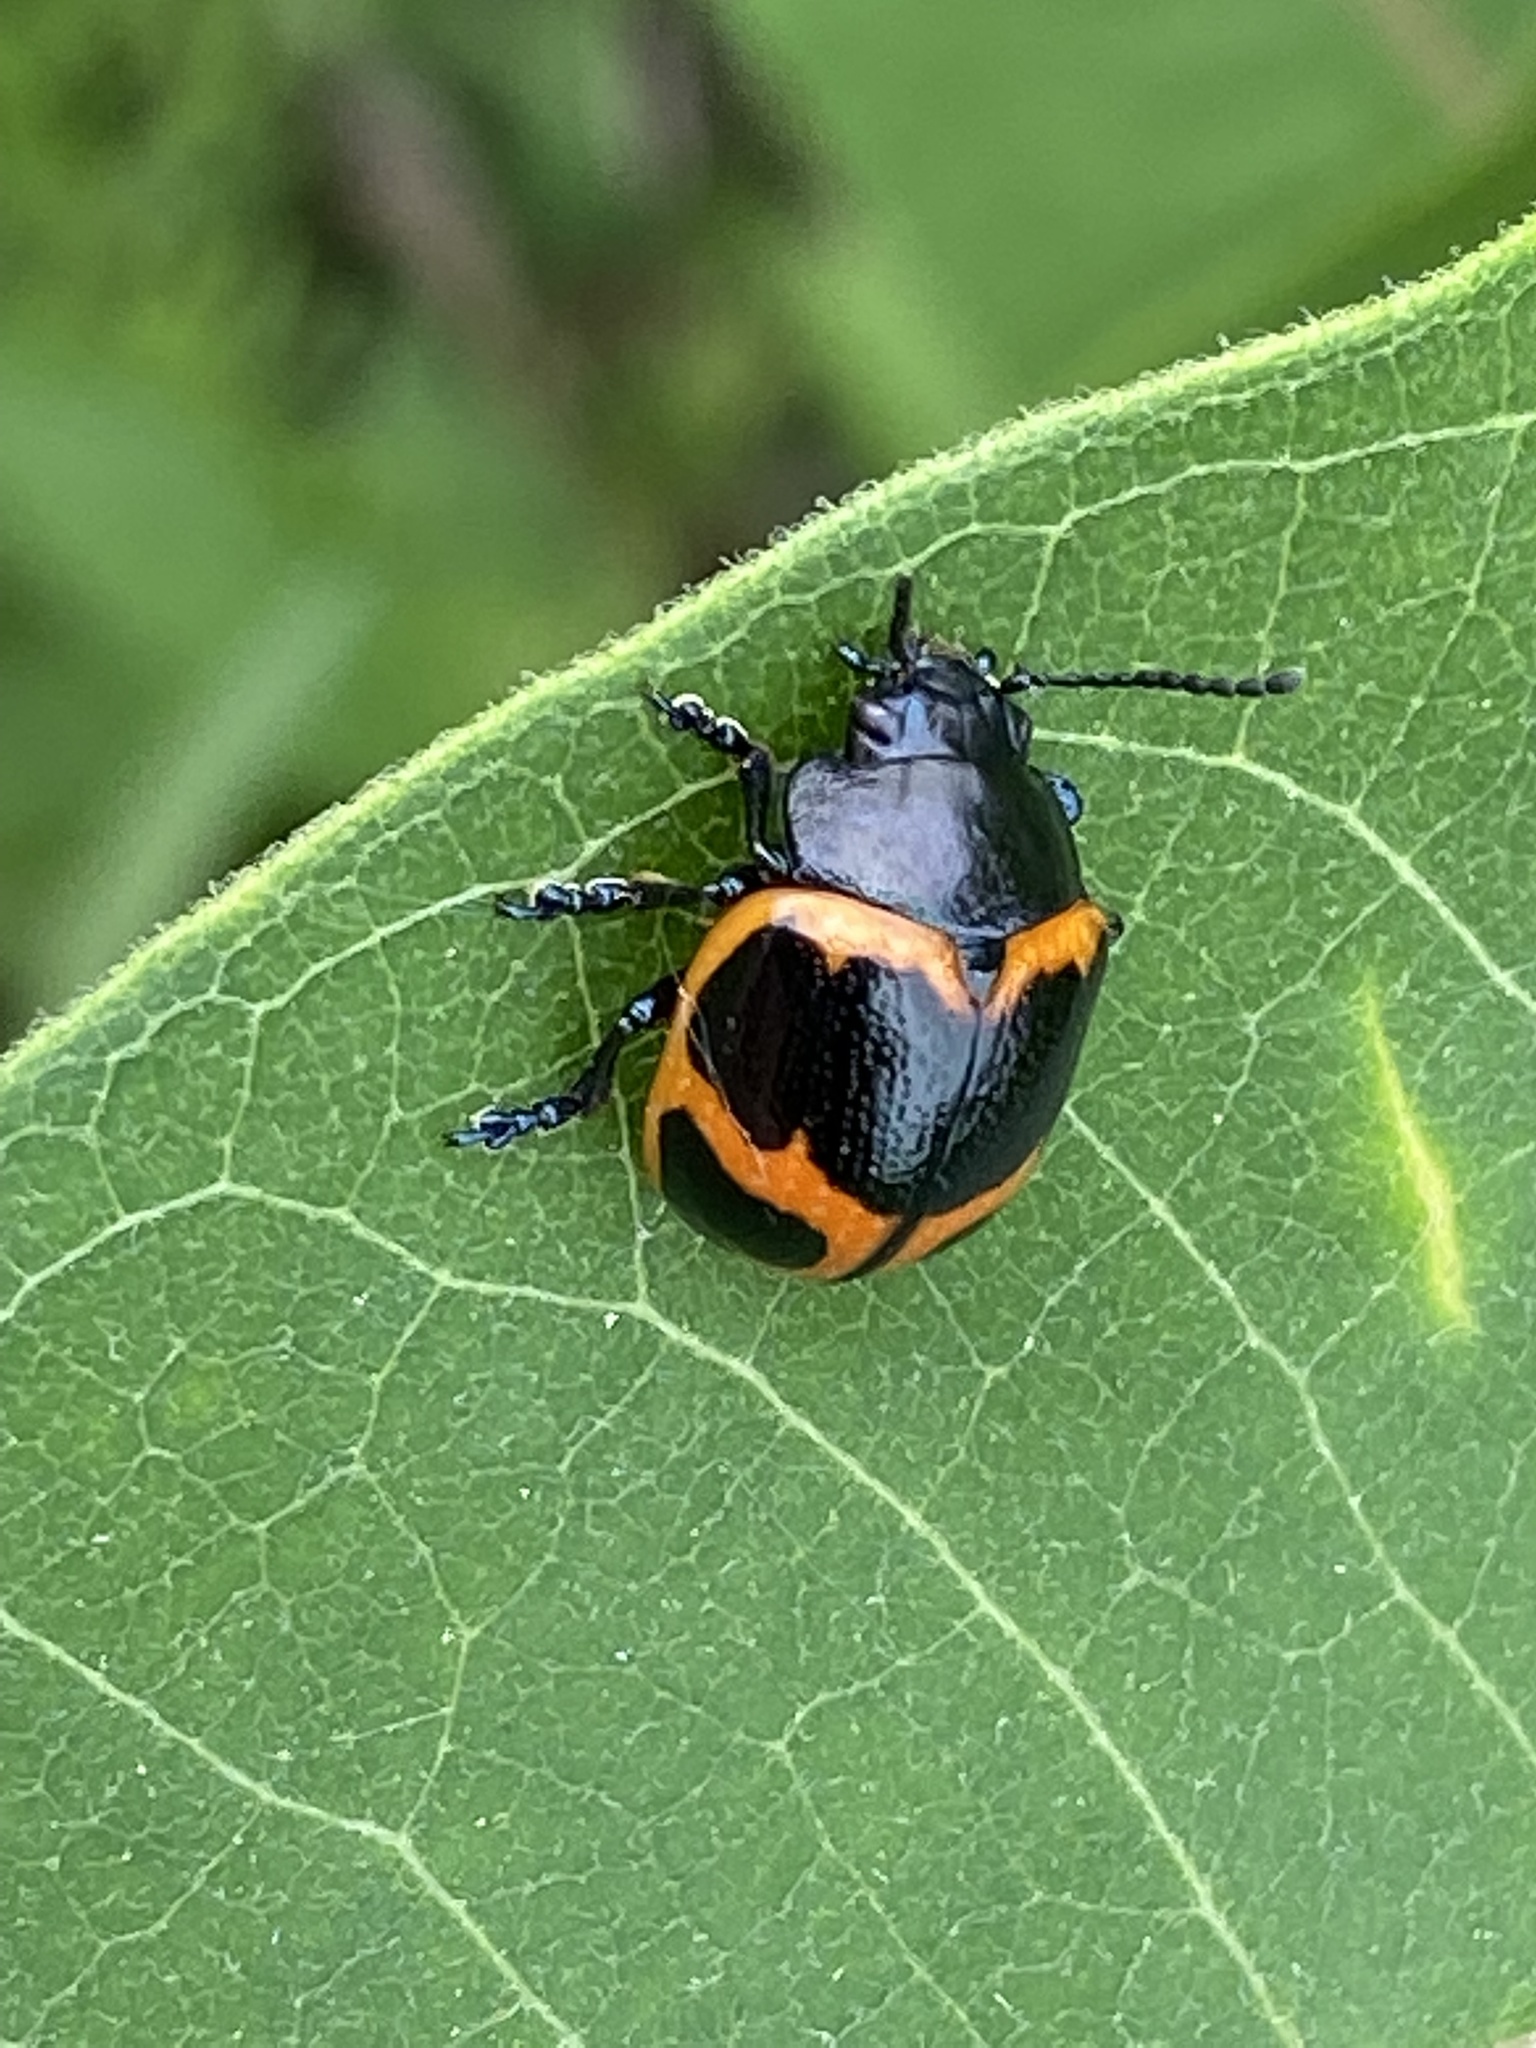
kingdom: Animalia
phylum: Arthropoda
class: Insecta
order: Coleoptera
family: Chrysomelidae
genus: Labidomera
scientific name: Labidomera clivicollis
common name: Swamp milkweed leaf beetle
